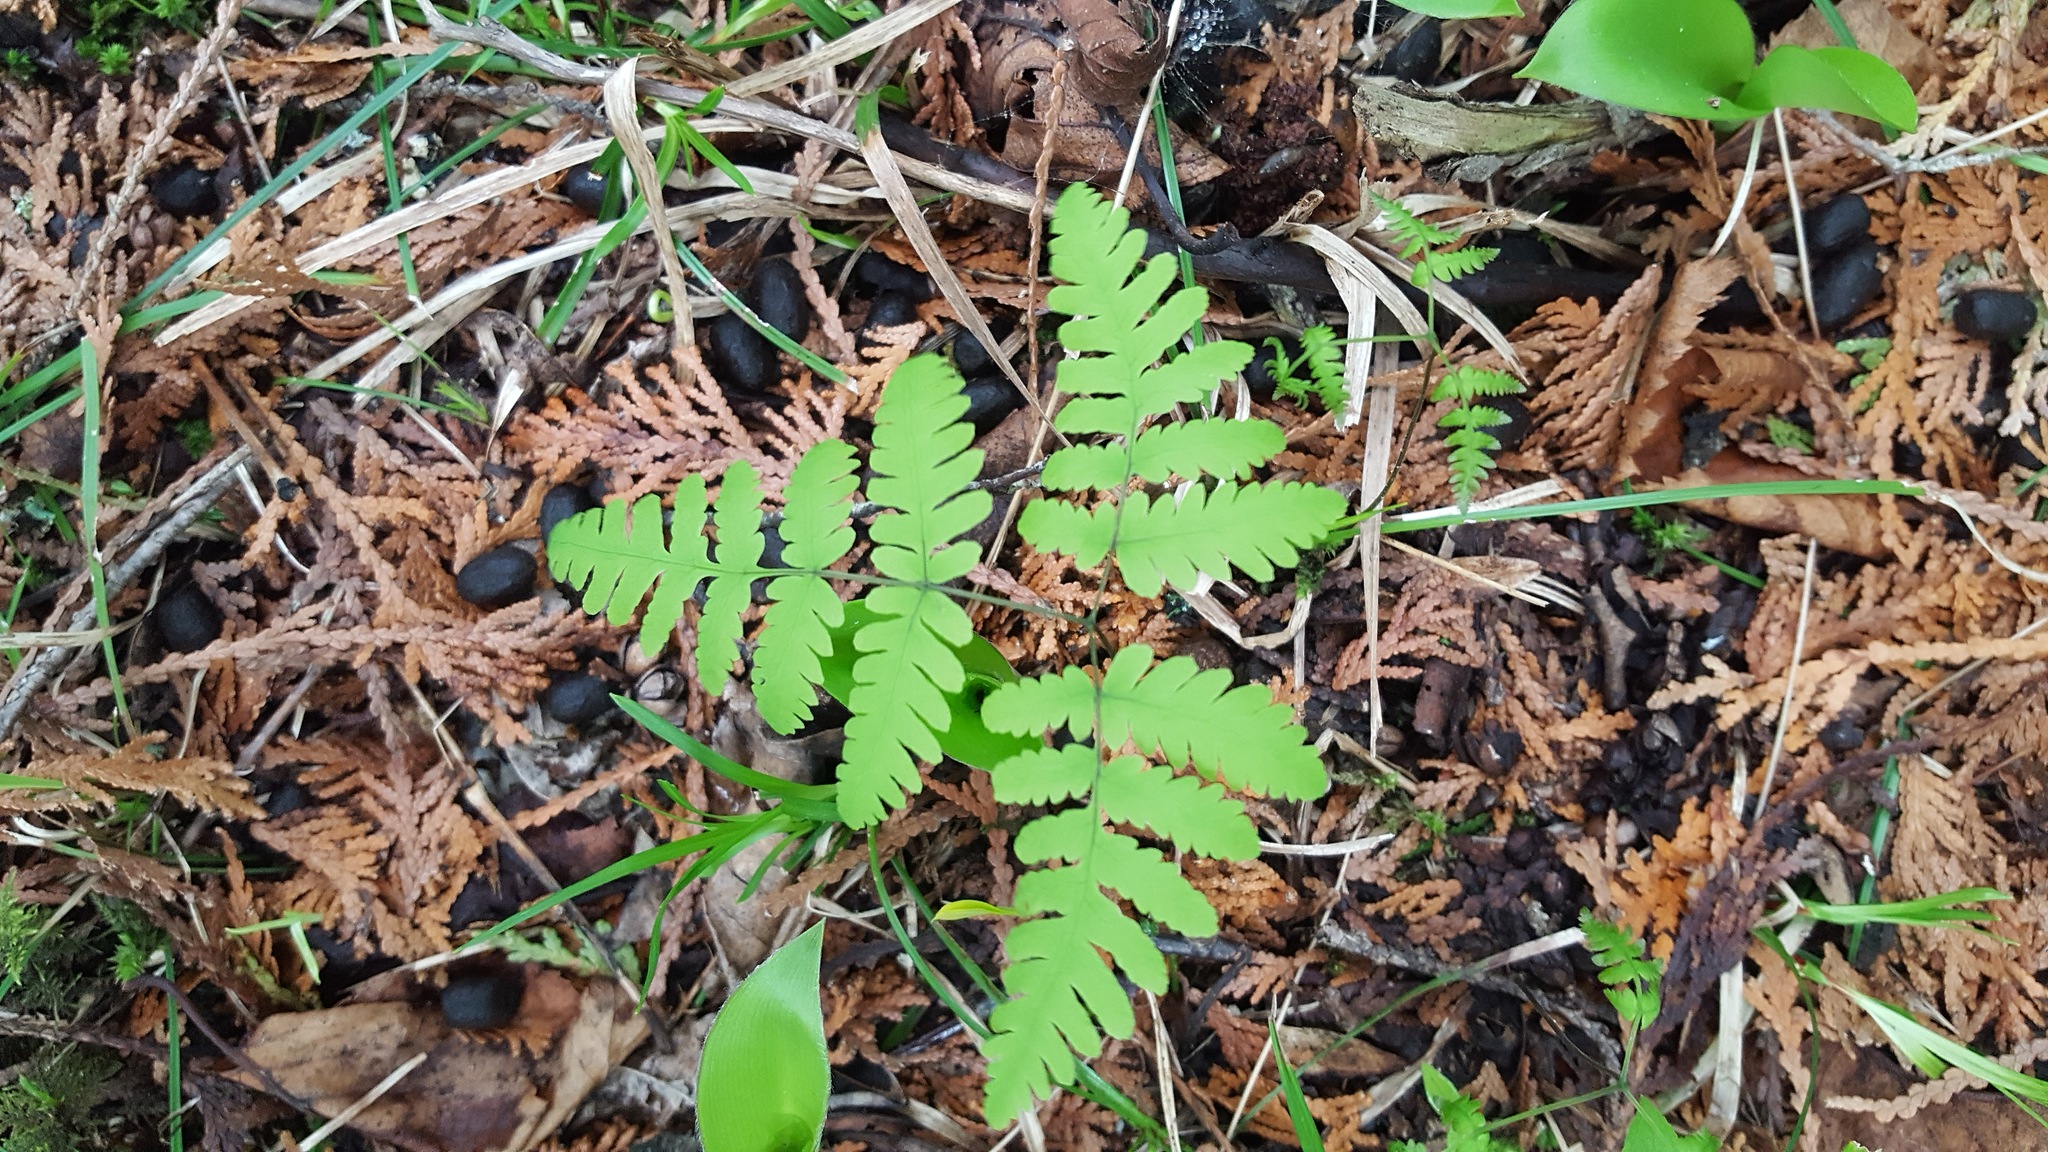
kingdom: Plantae
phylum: Tracheophyta
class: Polypodiopsida
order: Polypodiales
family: Cystopteridaceae
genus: Gymnocarpium
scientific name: Gymnocarpium dryopteris
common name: Oak fern
